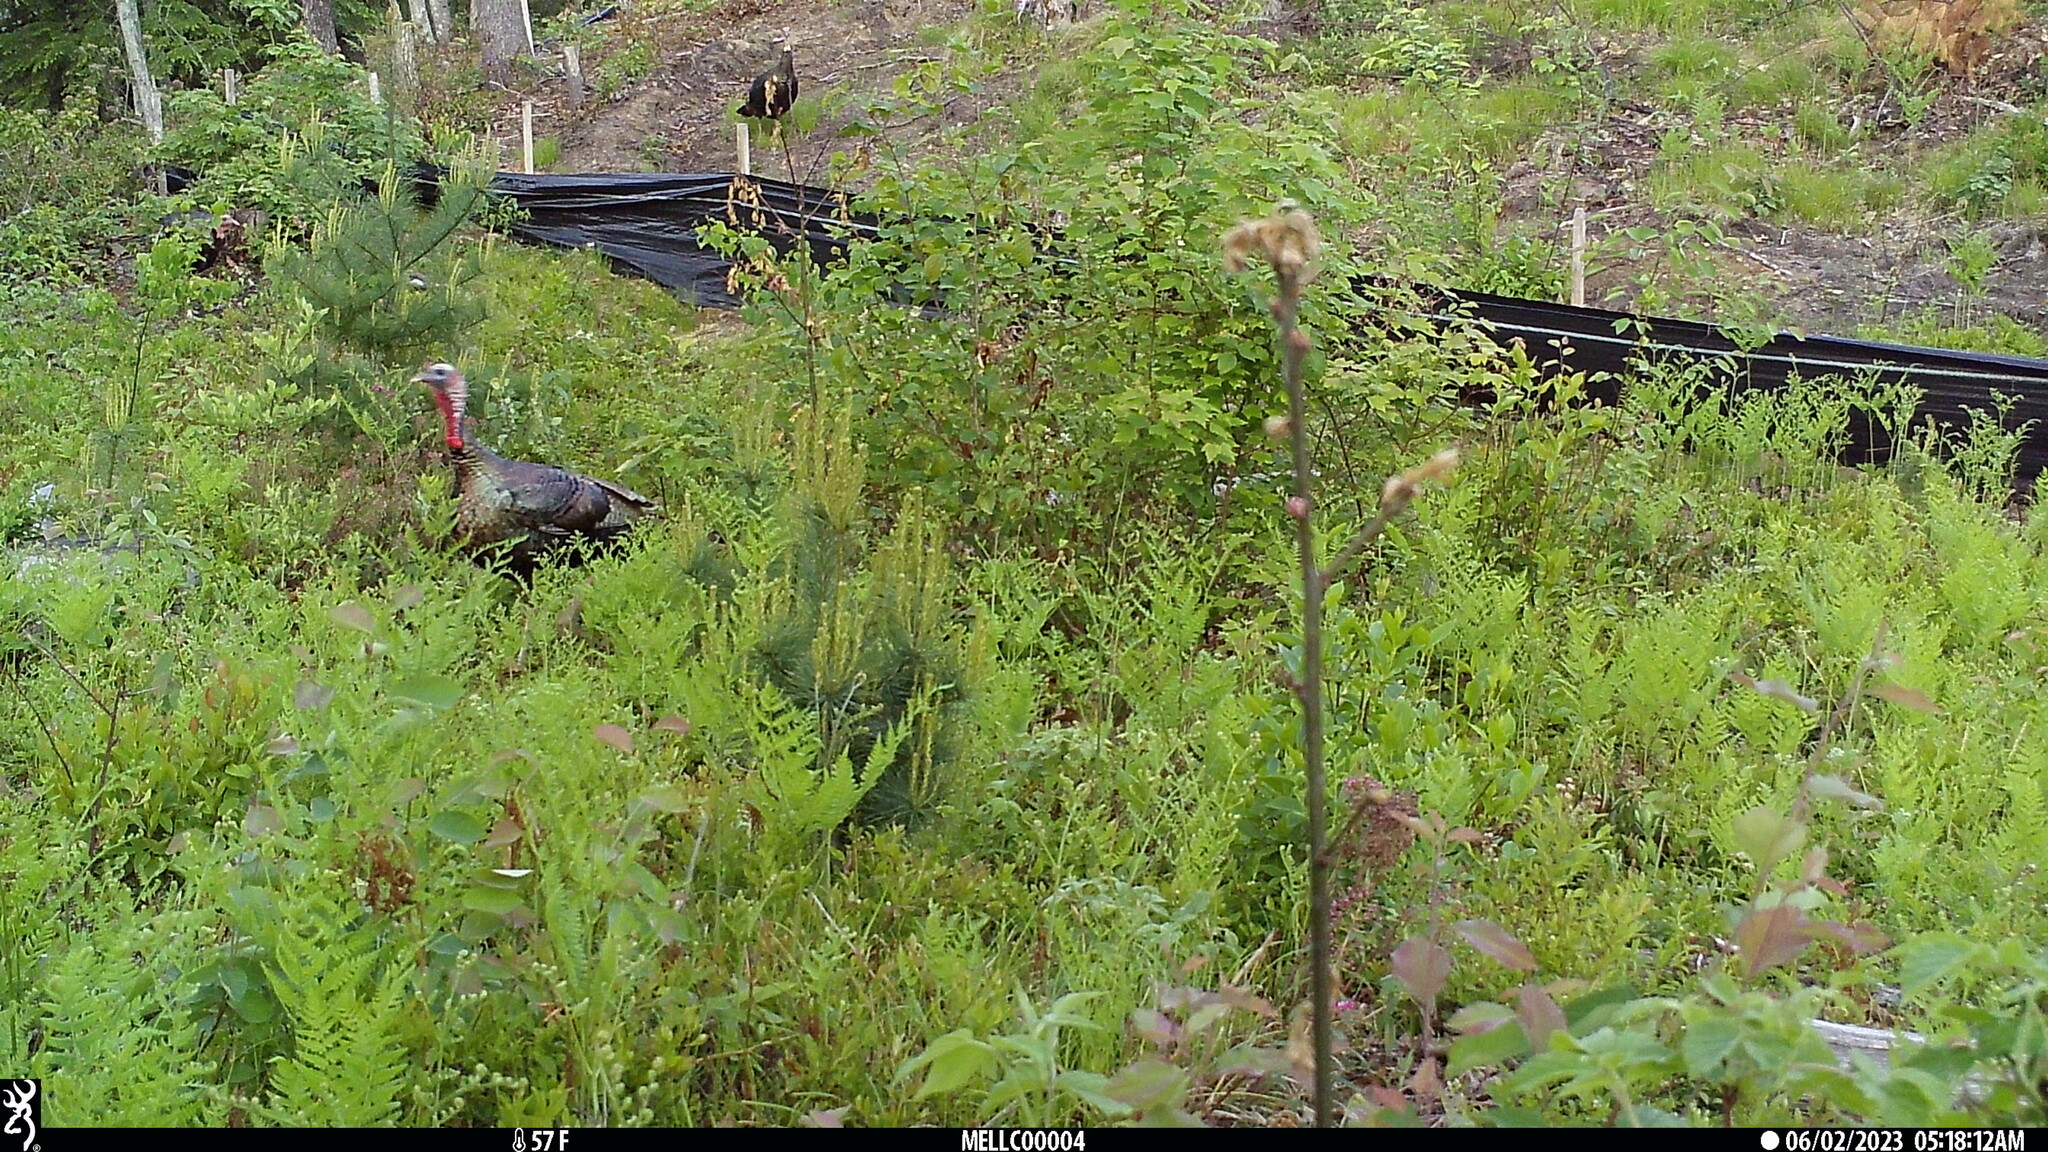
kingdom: Animalia
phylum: Chordata
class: Aves
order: Galliformes
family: Phasianidae
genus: Meleagris
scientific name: Meleagris gallopavo
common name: Wild turkey
